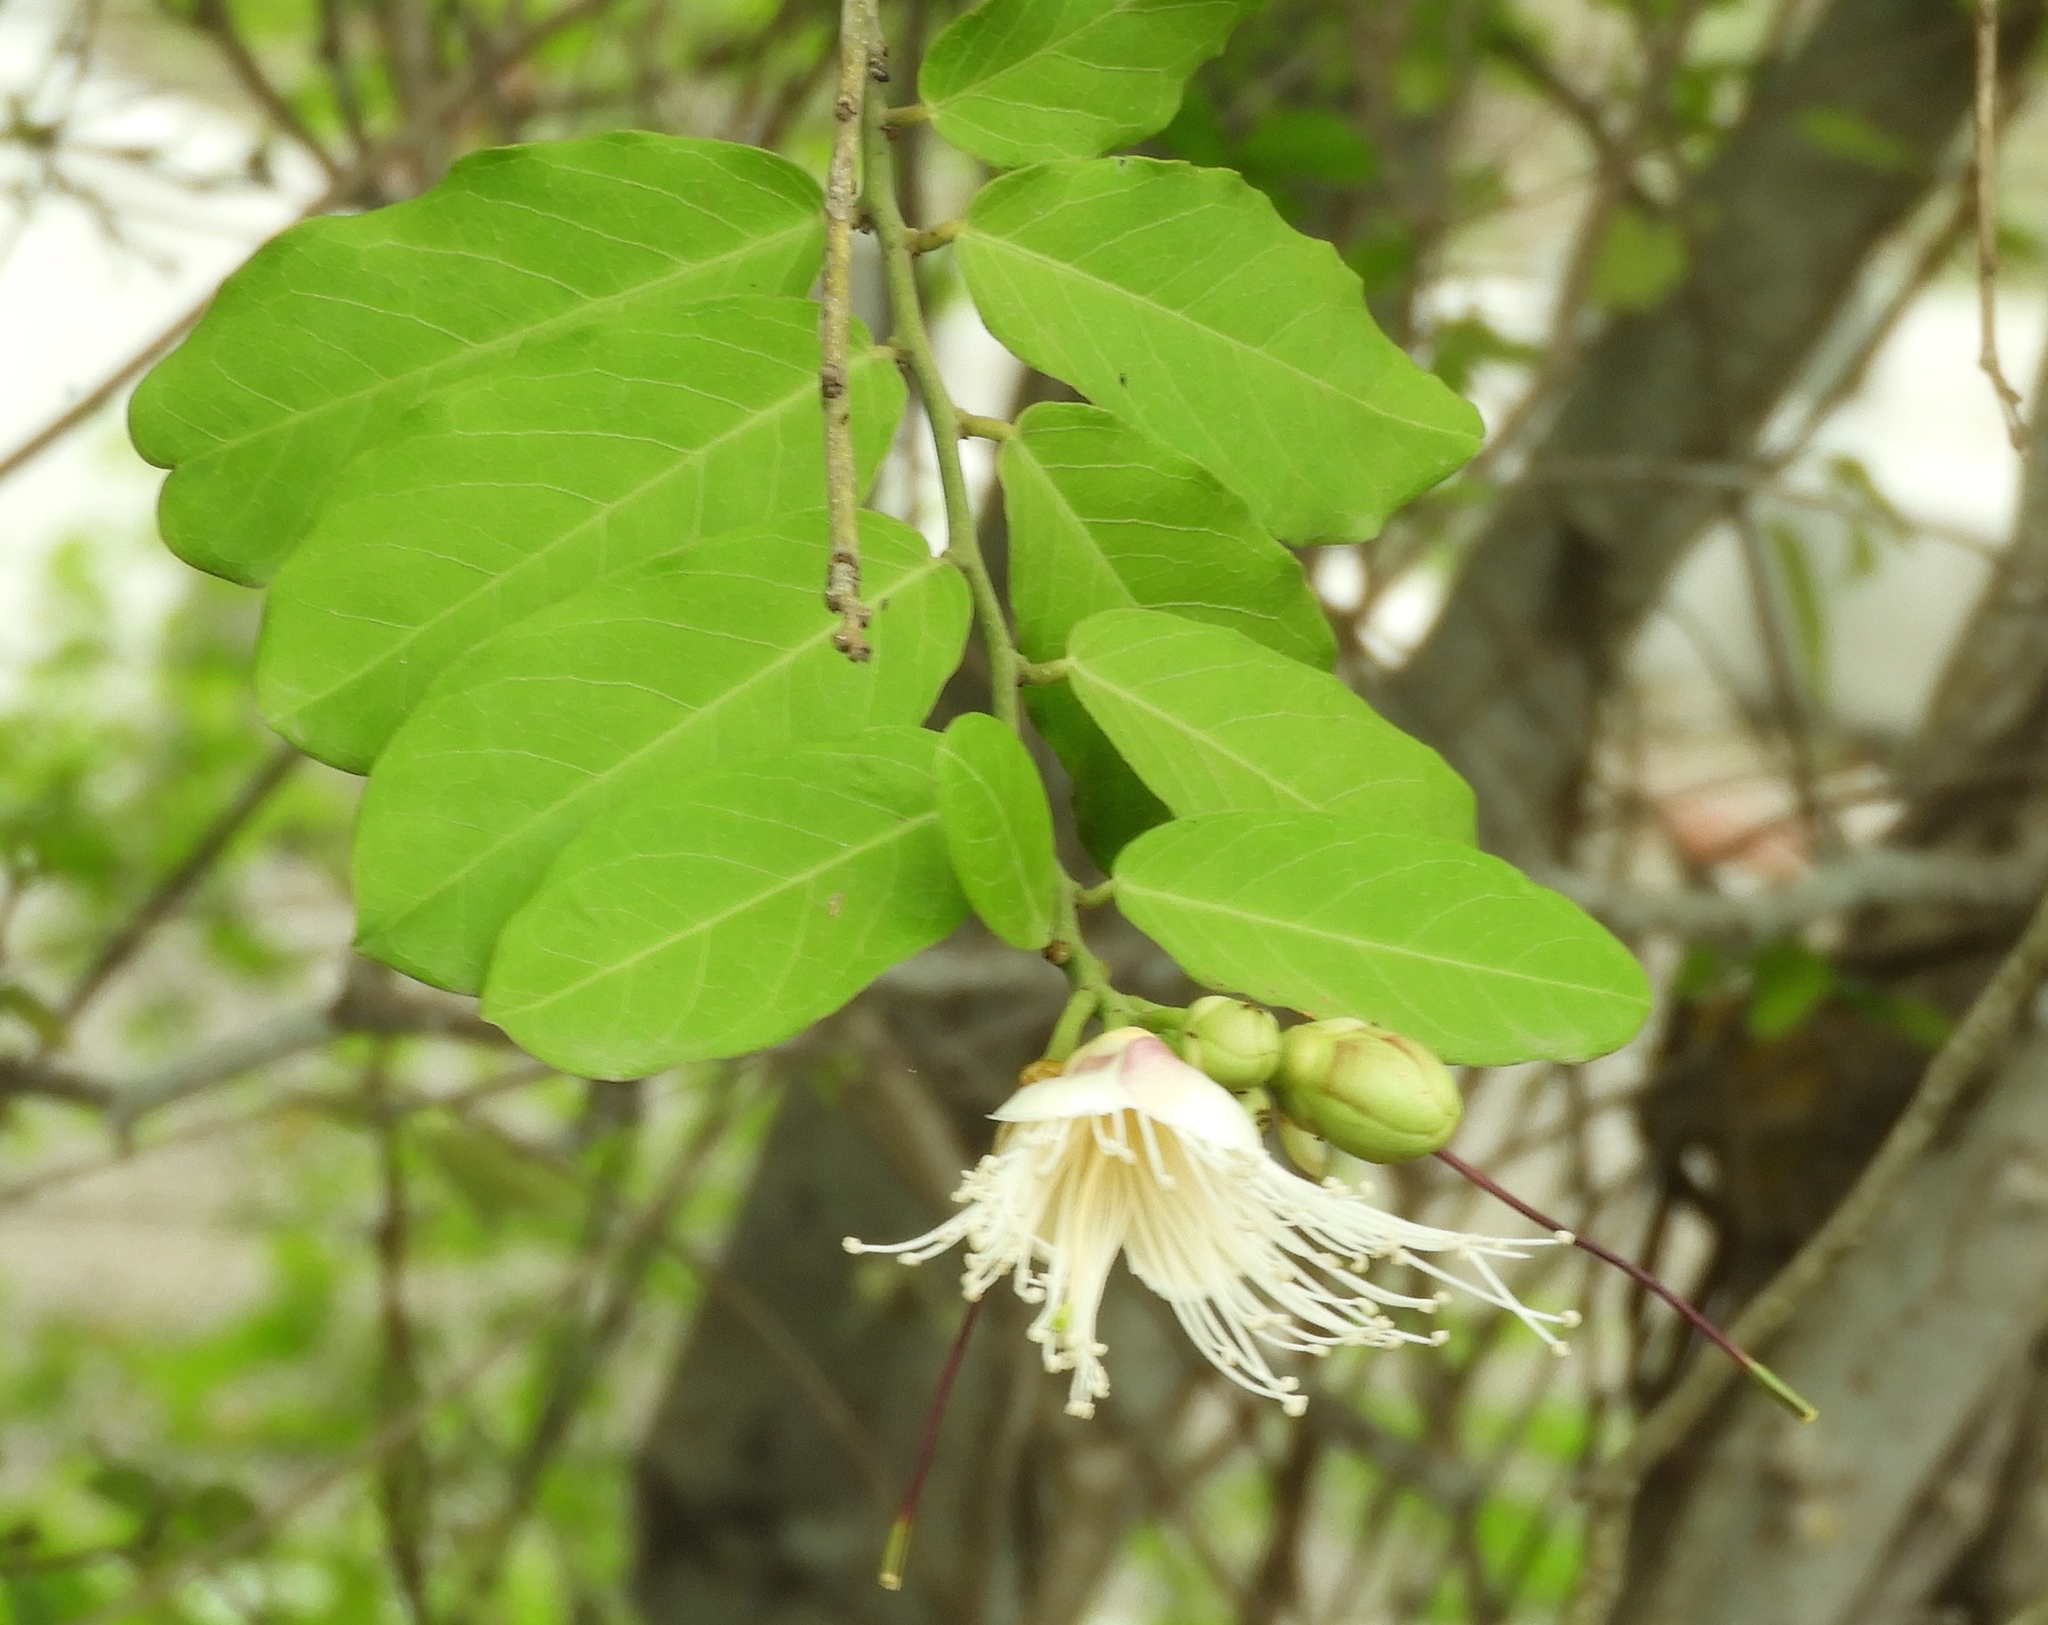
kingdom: Plantae
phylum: Tracheophyta
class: Magnoliopsida
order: Brassicales
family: Capparaceae
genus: Cynophalla
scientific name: Cynophalla flexuosa
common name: Capertree
